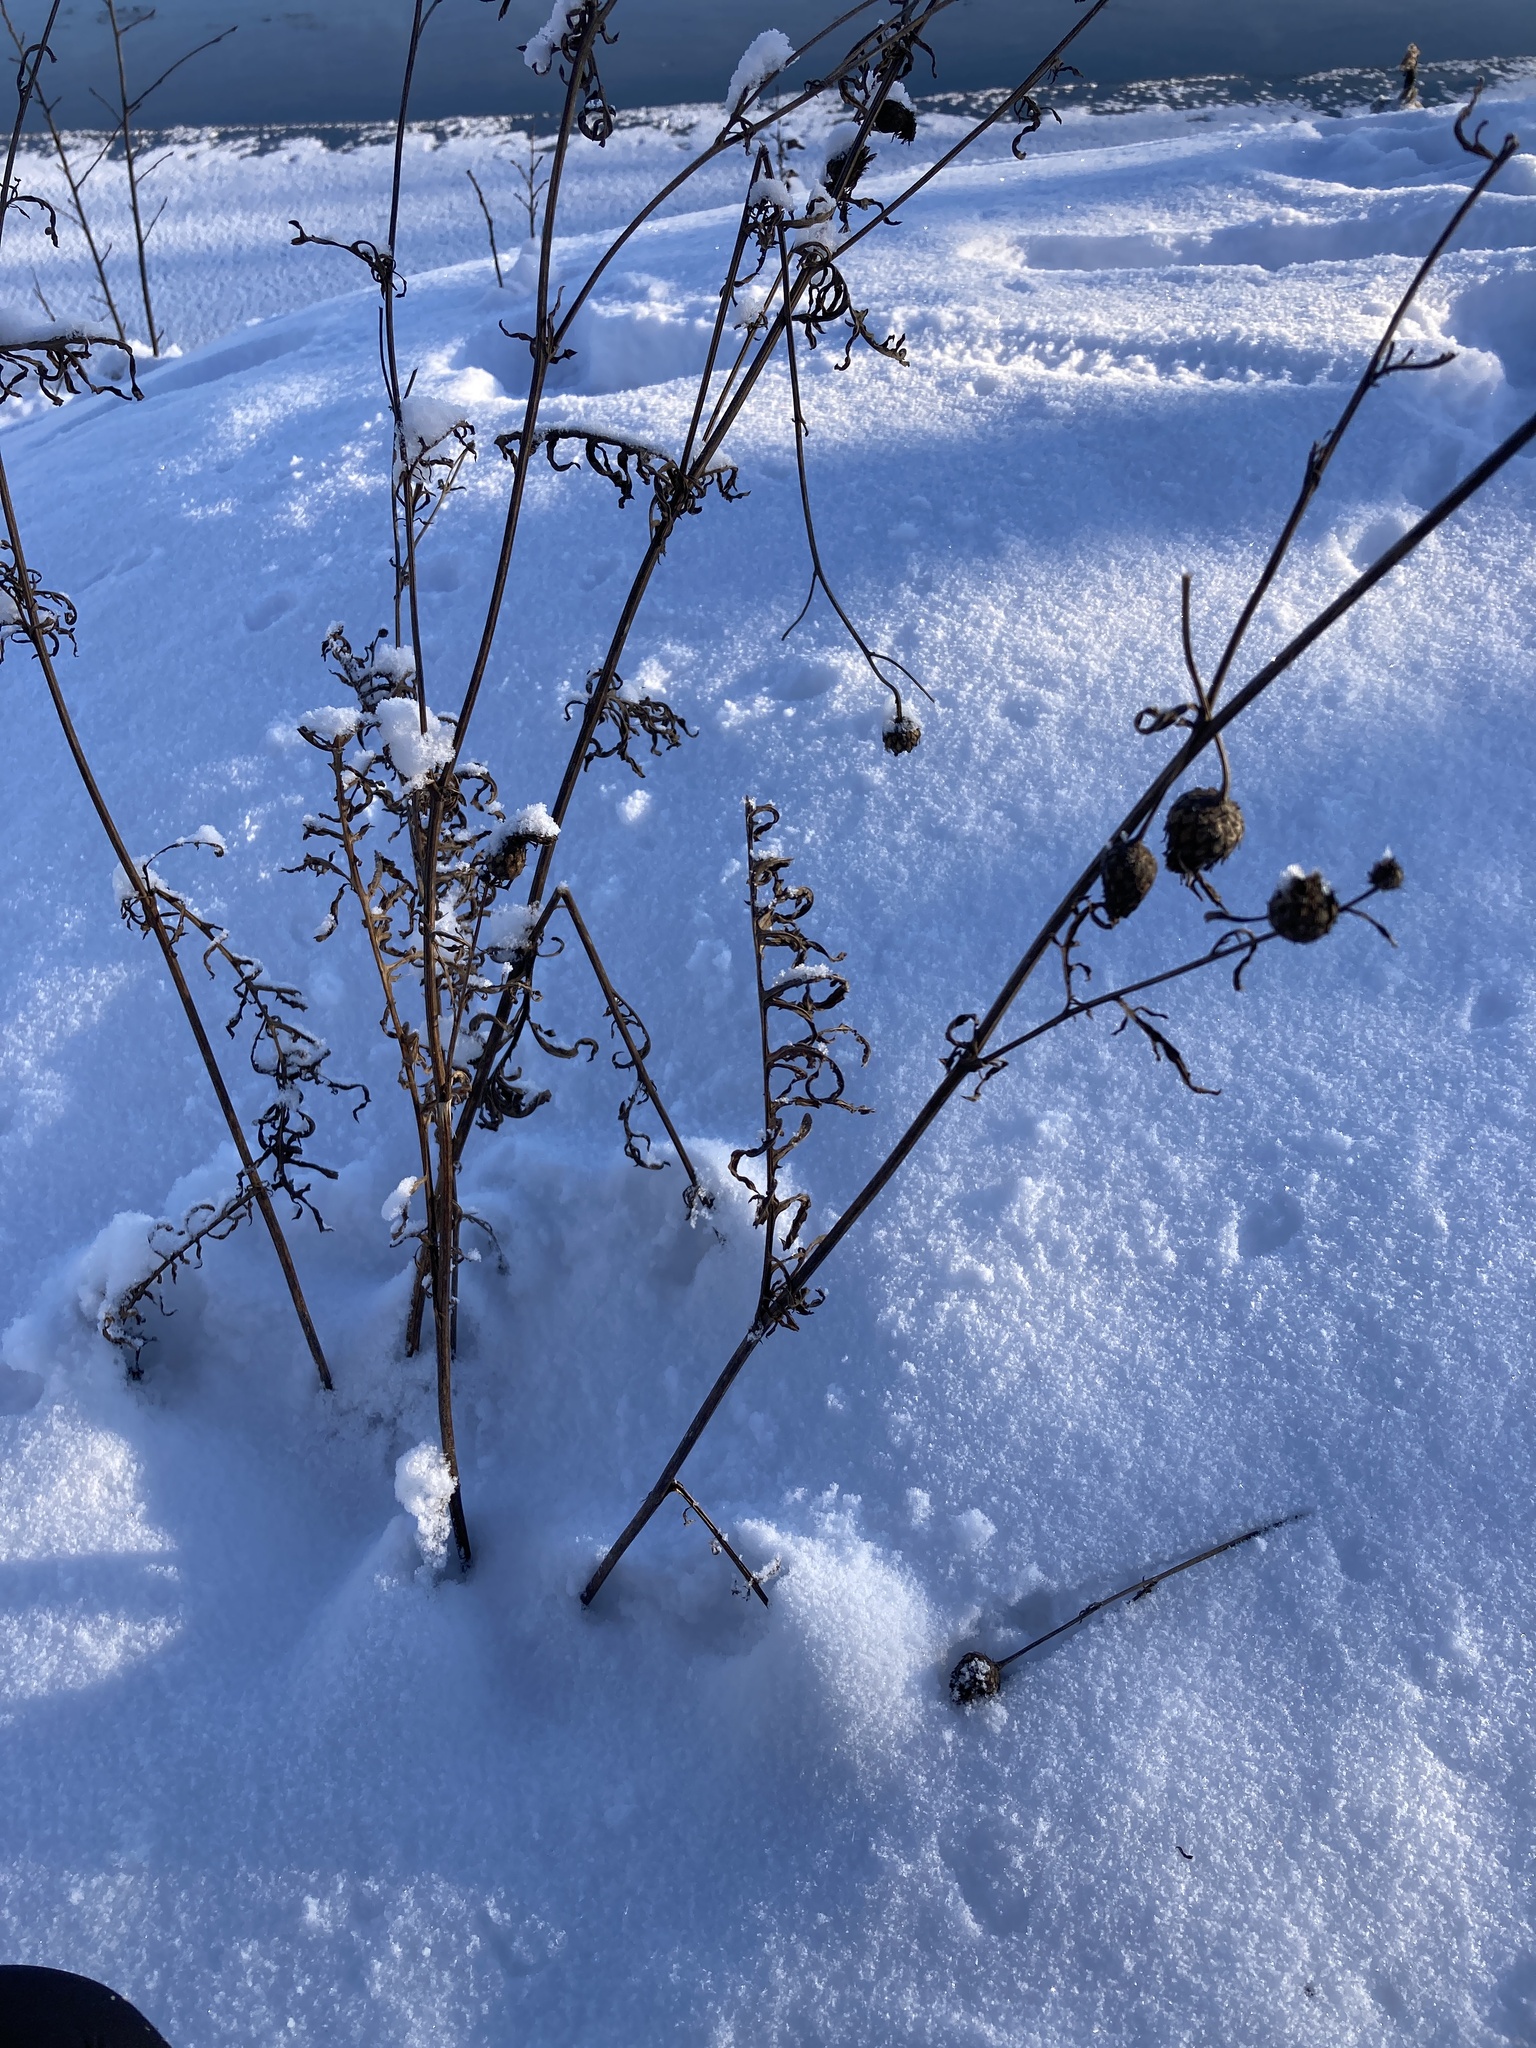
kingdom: Plantae
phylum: Tracheophyta
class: Magnoliopsida
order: Asterales
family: Asteraceae
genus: Centaurea
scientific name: Centaurea scabiosa
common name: Greater knapweed
